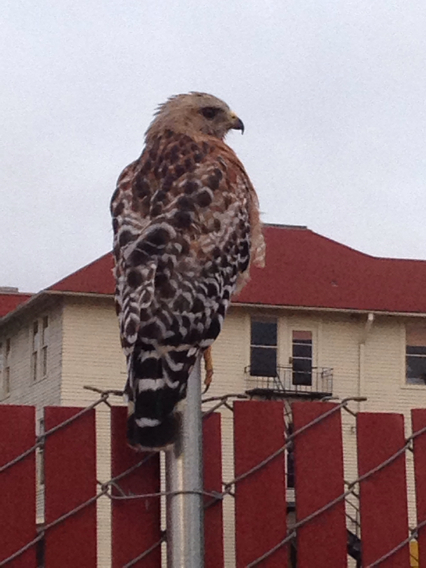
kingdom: Animalia
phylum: Chordata
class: Aves
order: Accipitriformes
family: Accipitridae
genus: Buteo
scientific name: Buteo lineatus
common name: Red-shouldered hawk
